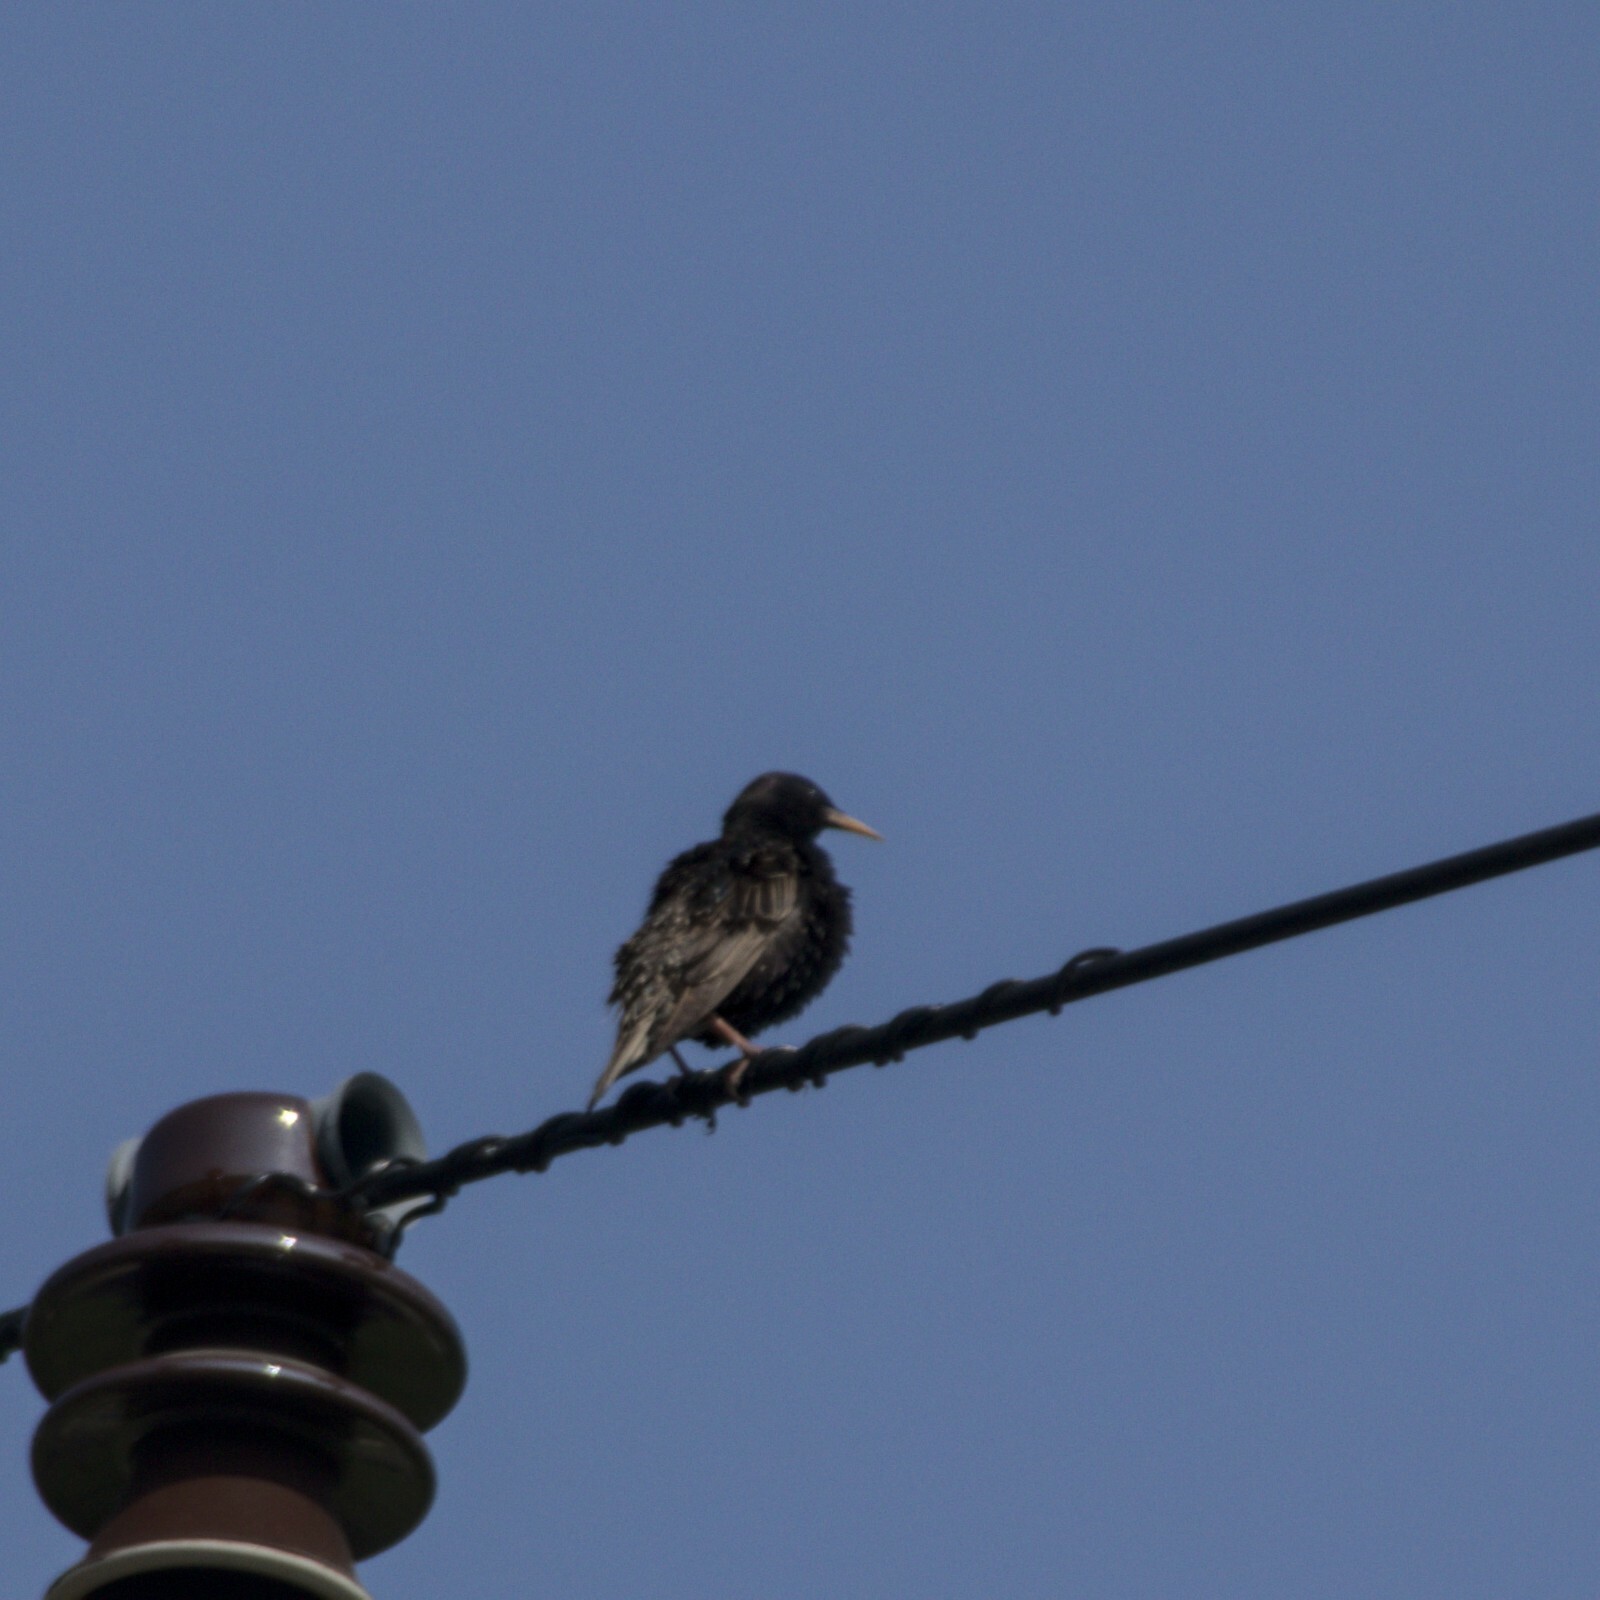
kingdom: Animalia
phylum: Chordata
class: Aves
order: Passeriformes
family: Sturnidae
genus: Sturnus
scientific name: Sturnus vulgaris
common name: Common starling
